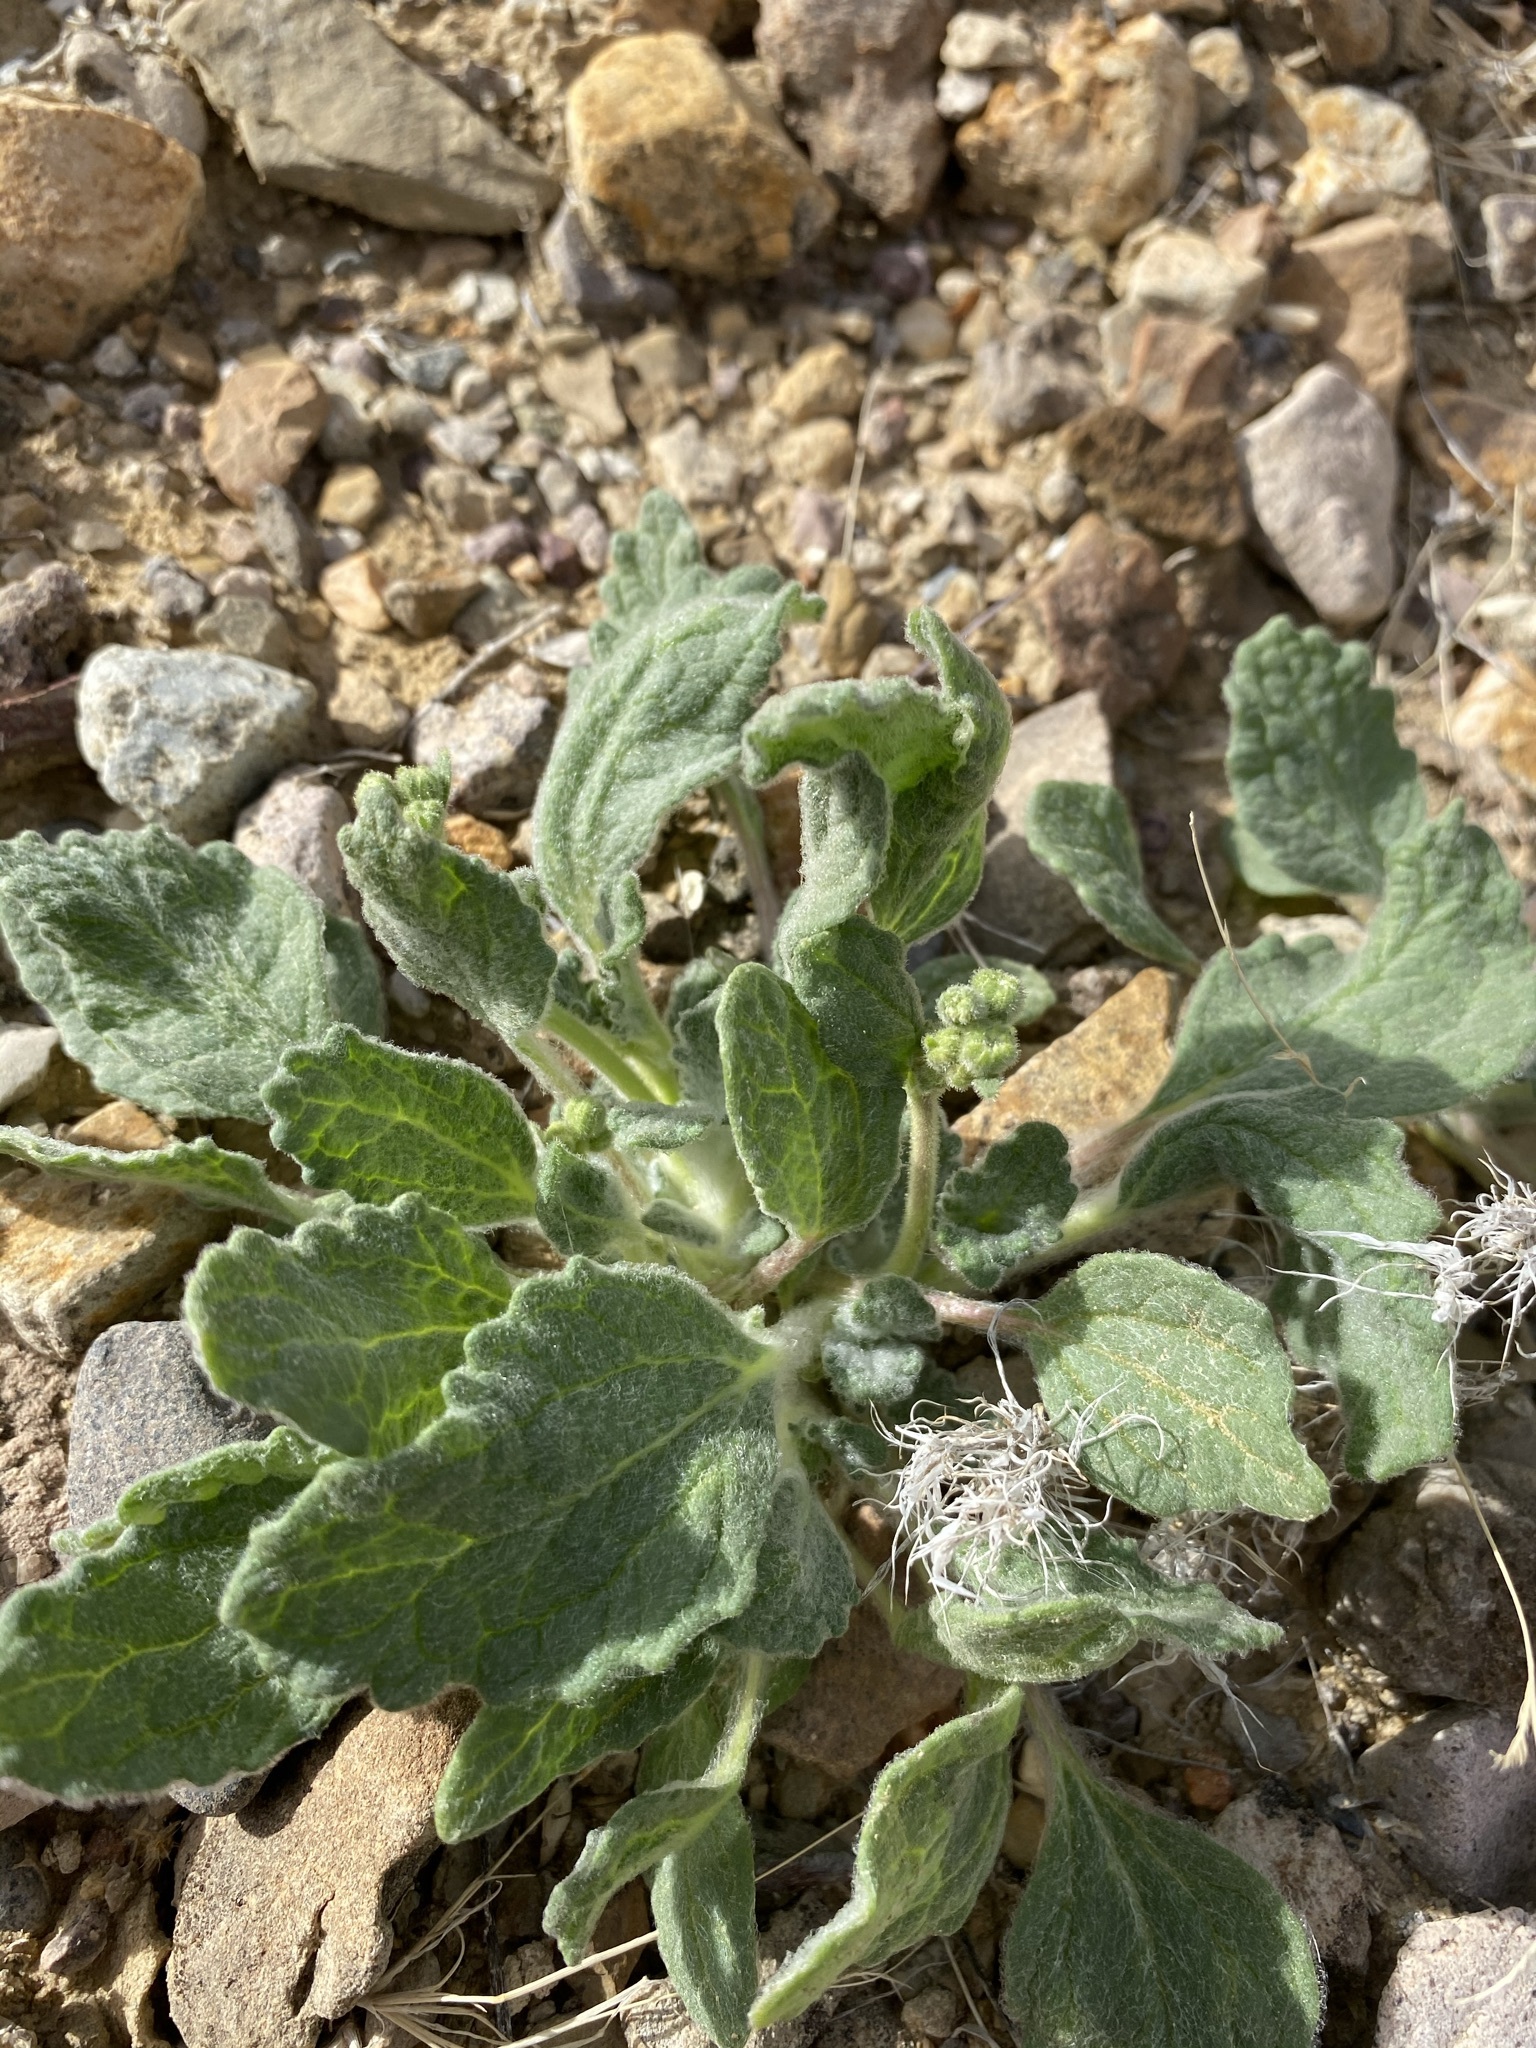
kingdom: Plantae
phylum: Tracheophyta
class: Magnoliopsida
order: Asterales
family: Asteraceae
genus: Psathyrotopsis
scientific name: Psathyrotopsis scaposa
